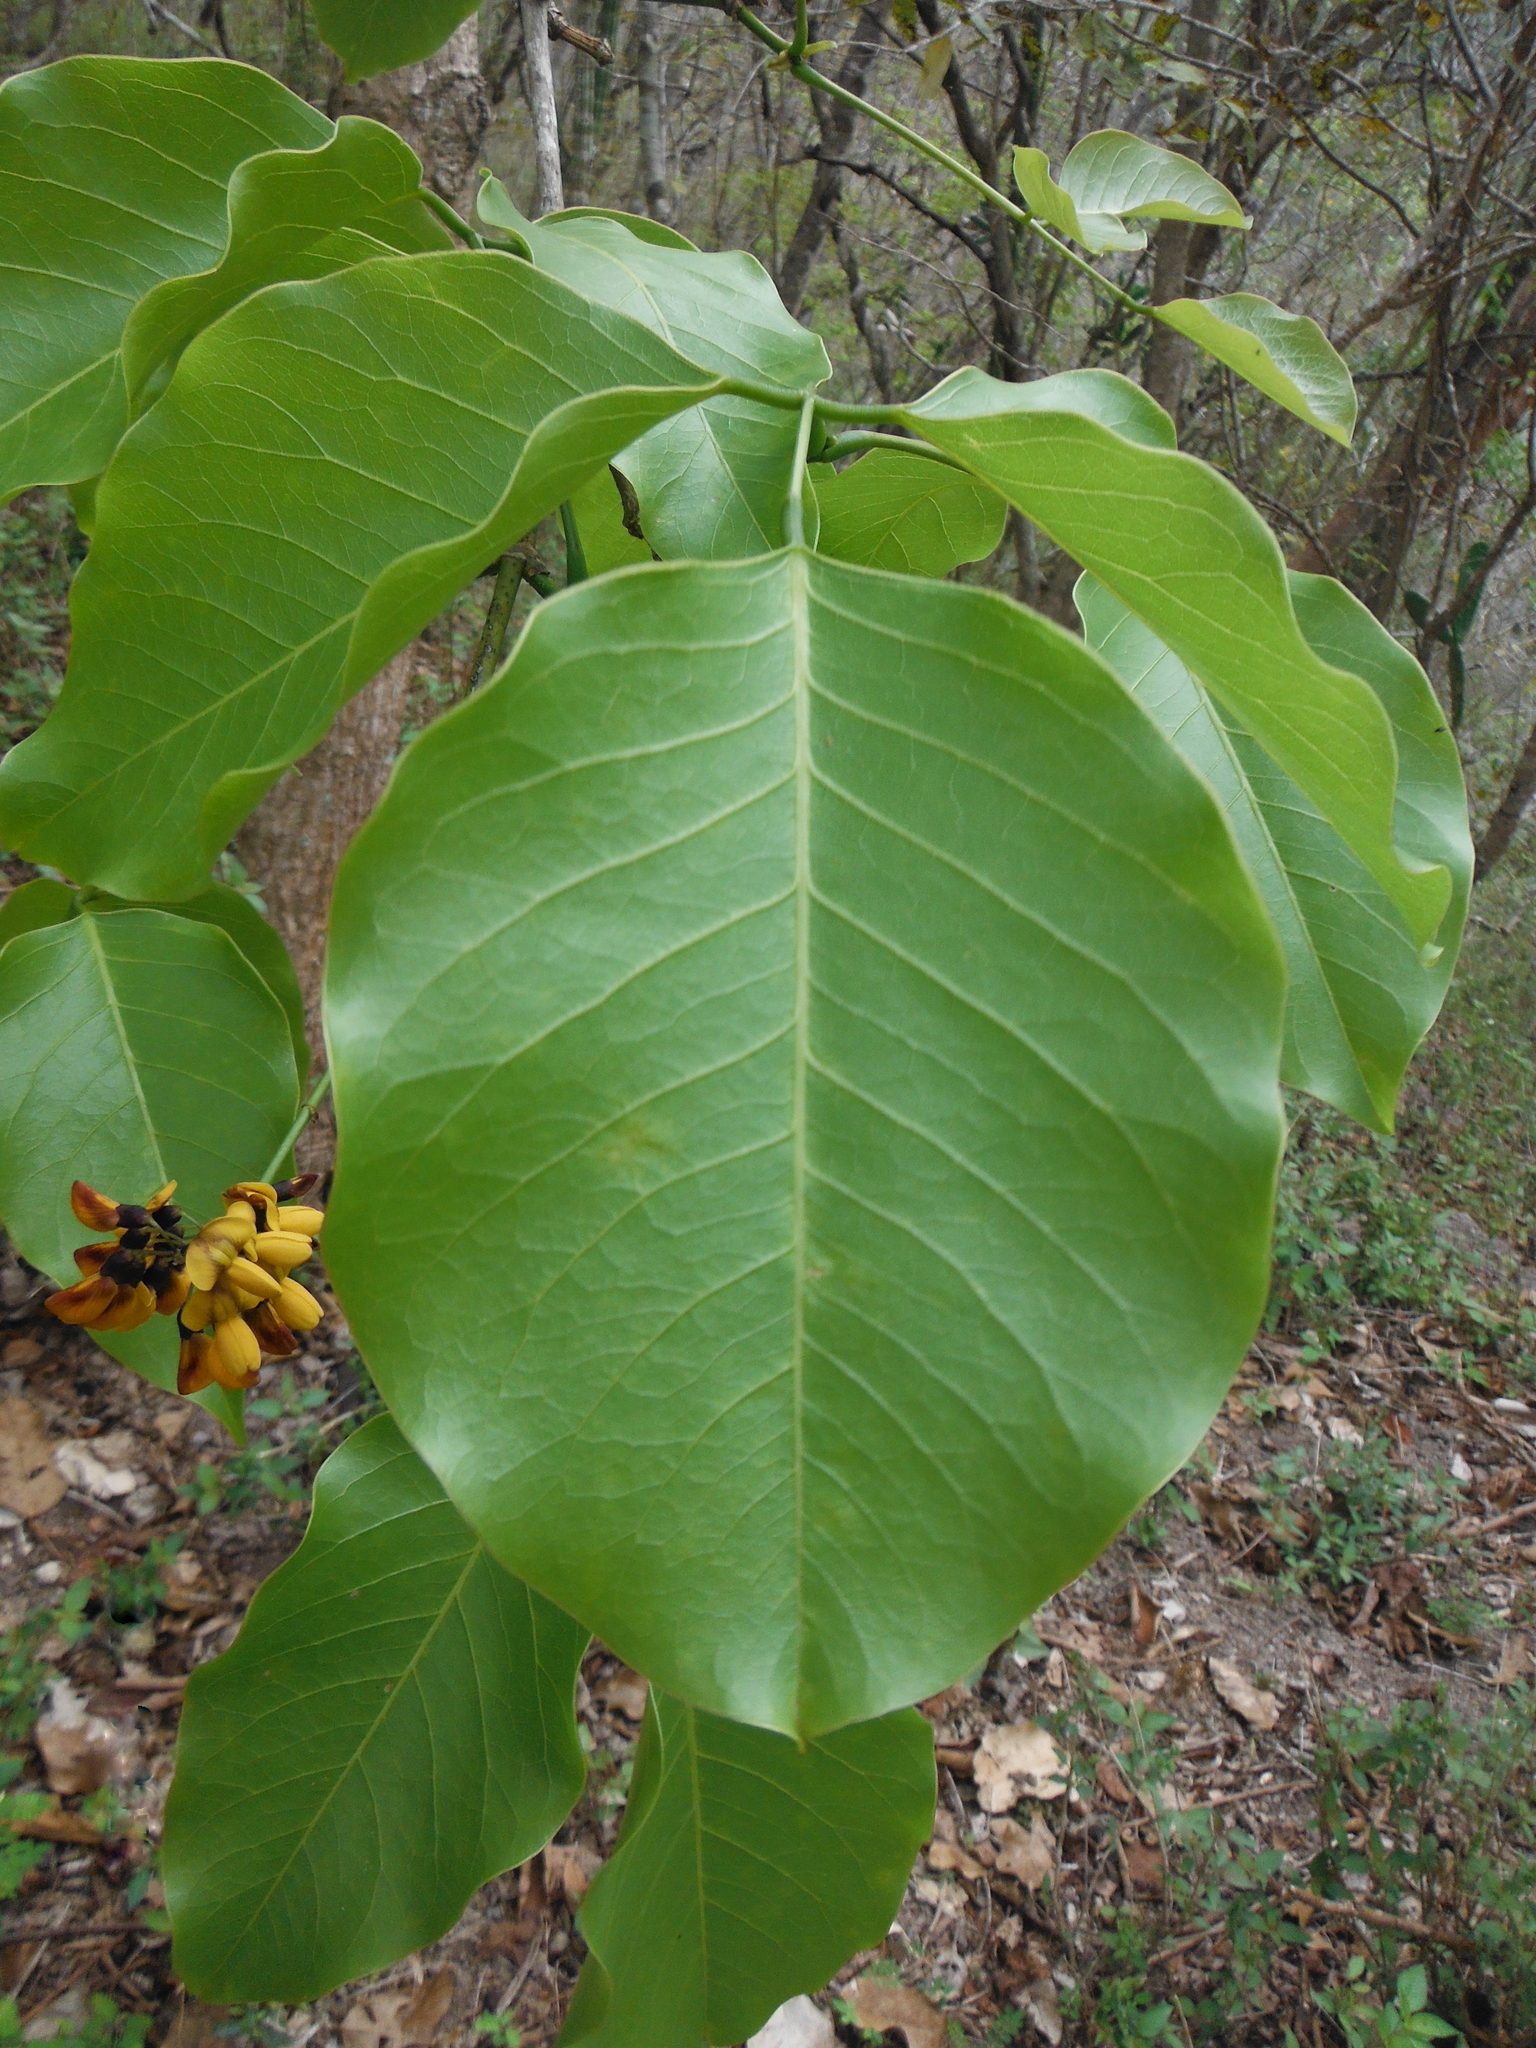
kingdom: Plantae
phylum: Tracheophyta
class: Magnoliopsida
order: Fabales
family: Fabaceae
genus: Platymiscium
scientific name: Platymiscium trifoliolatum
